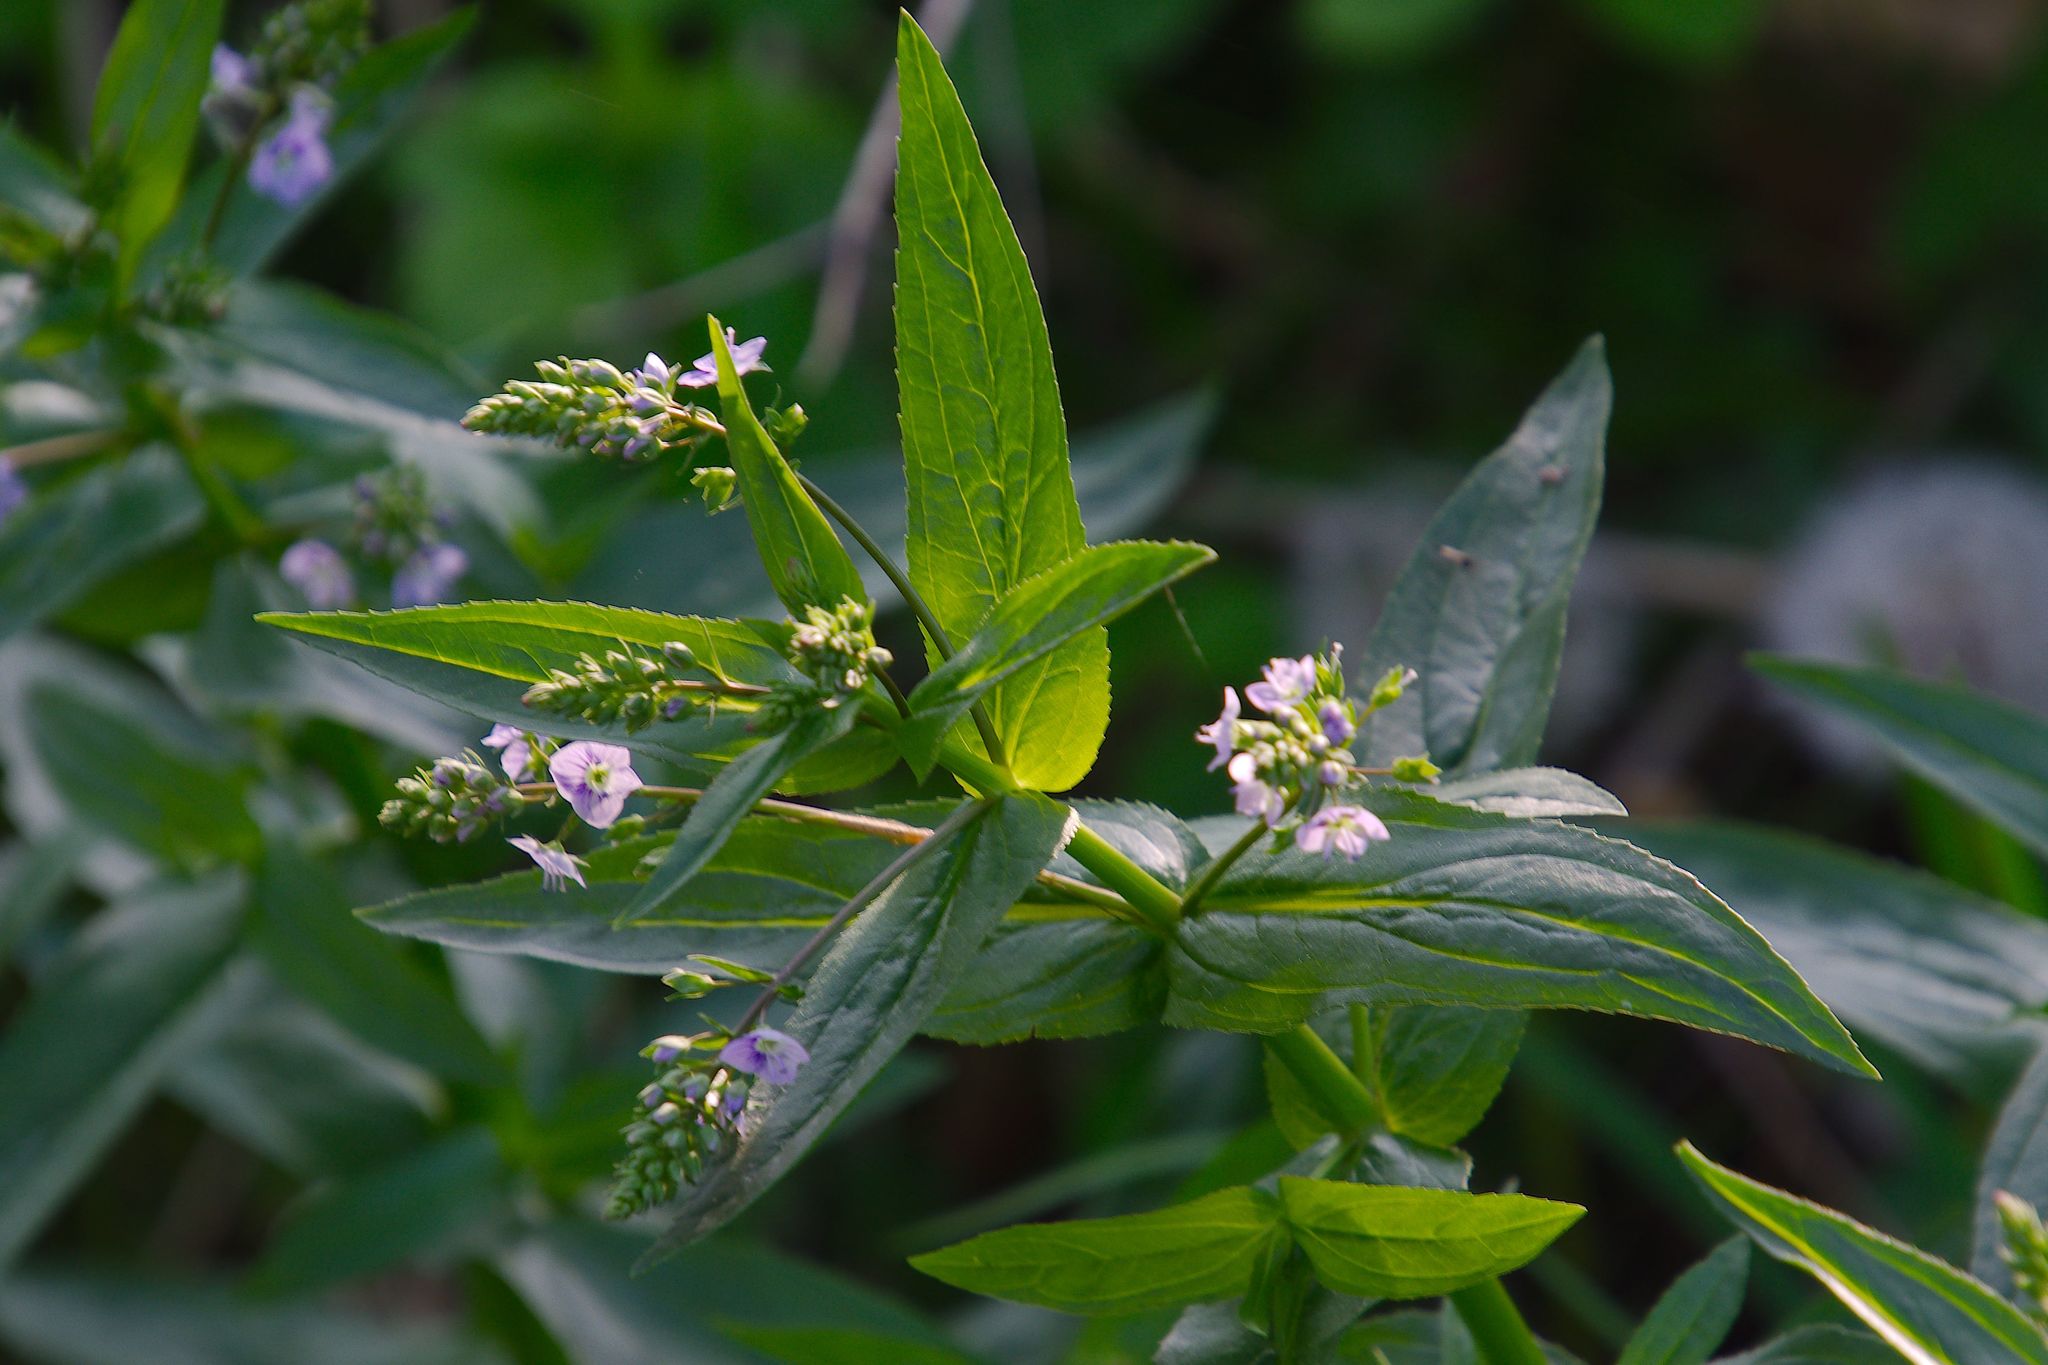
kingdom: Plantae
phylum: Tracheophyta
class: Magnoliopsida
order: Lamiales
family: Plantaginaceae
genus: Veronica
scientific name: Veronica anagallis-aquatica
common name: Water speedwell
